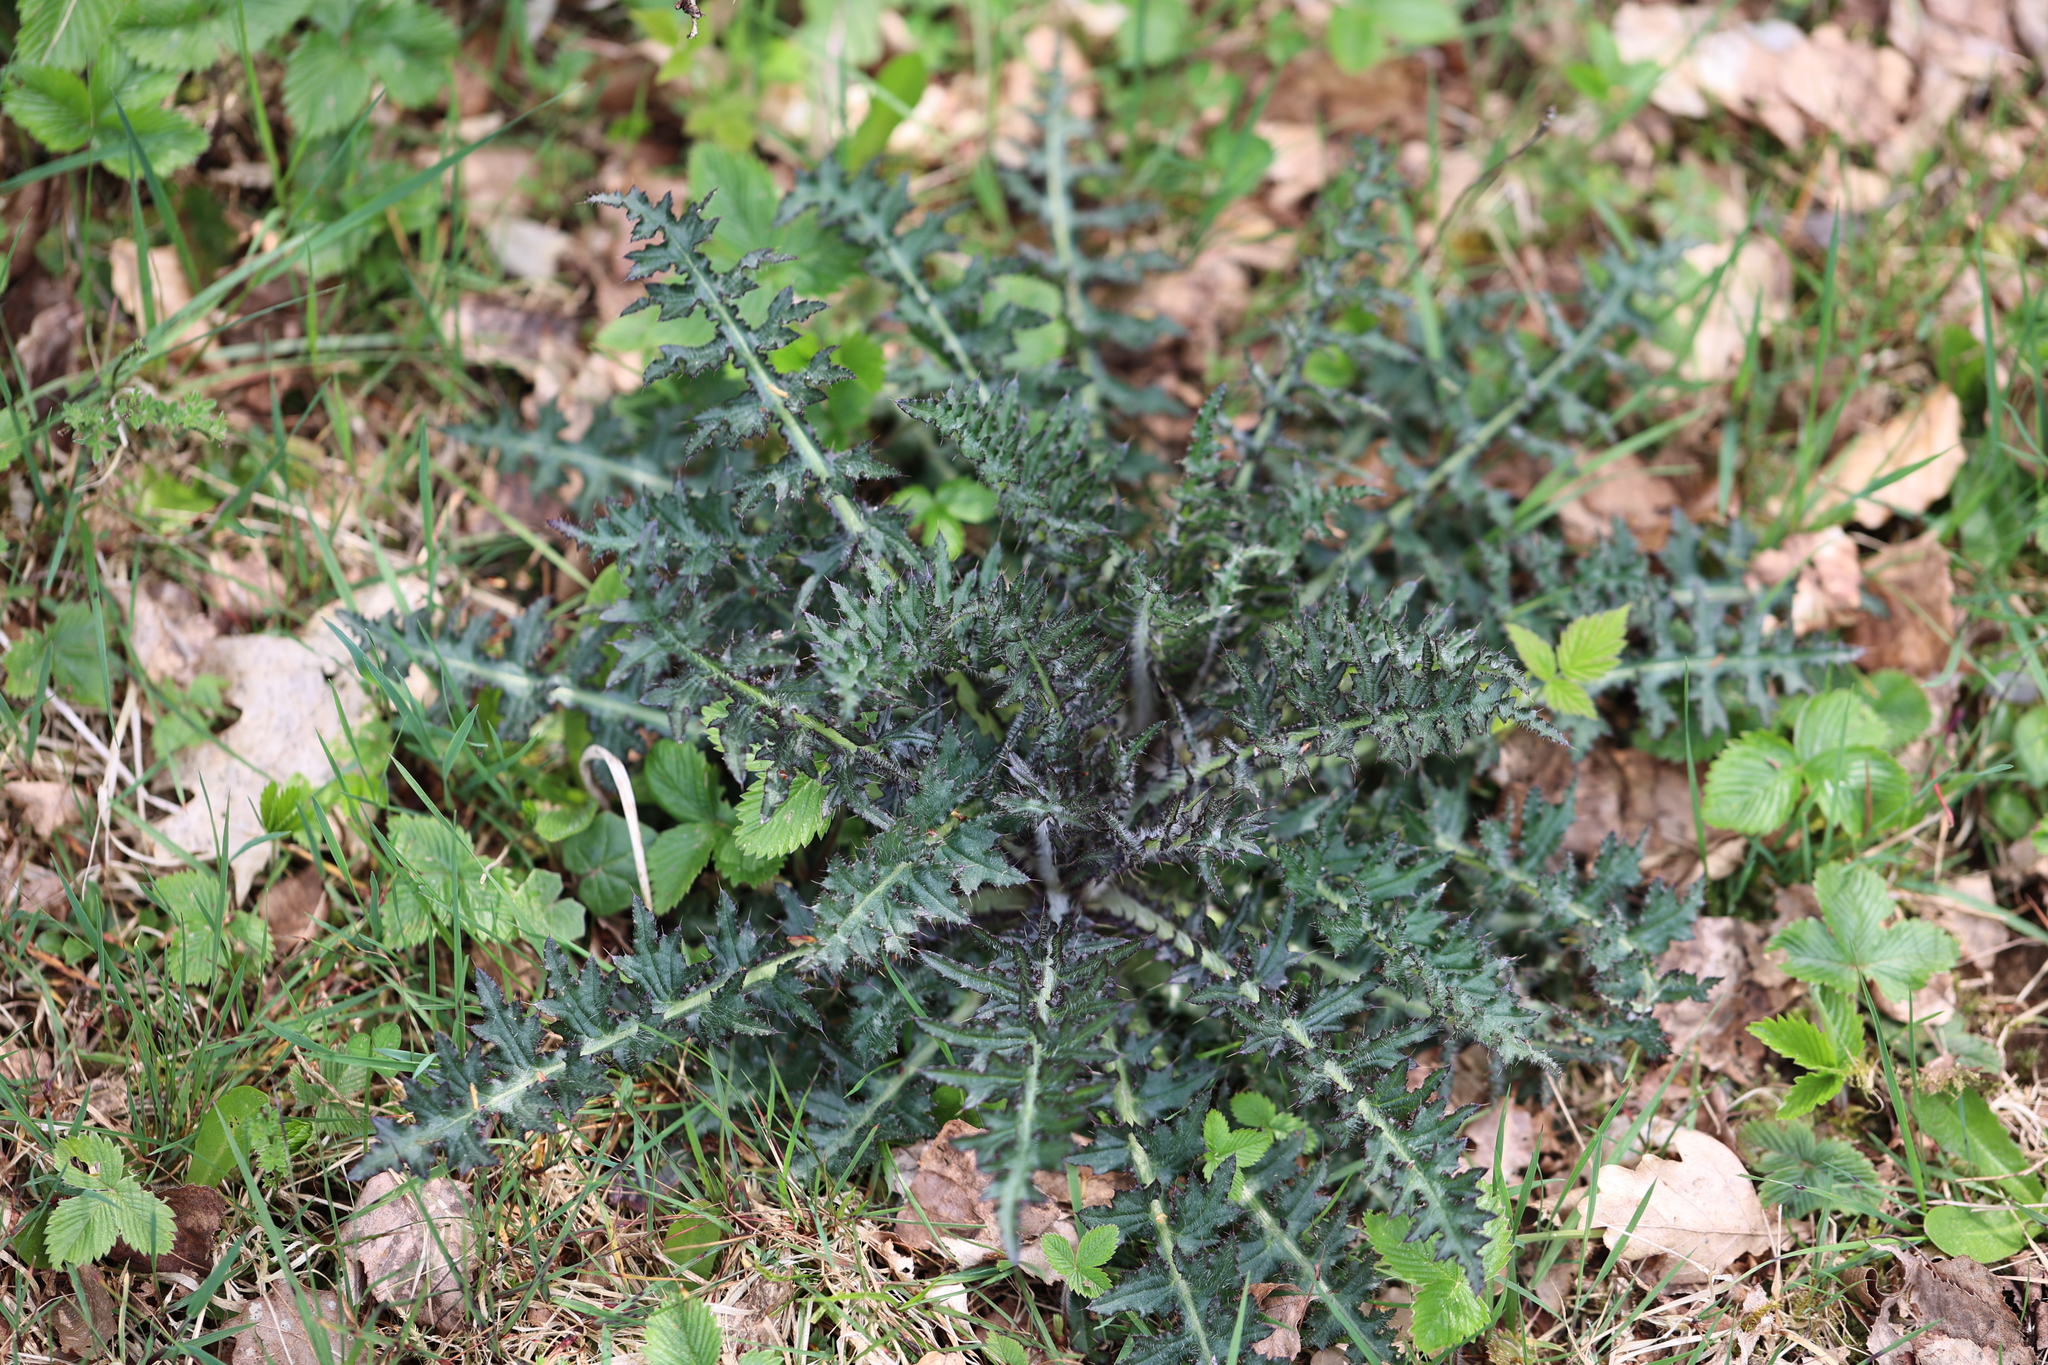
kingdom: Plantae
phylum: Tracheophyta
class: Magnoliopsida
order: Asterales
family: Asteraceae
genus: Cirsium
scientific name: Cirsium palustre
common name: Marsh thistle
